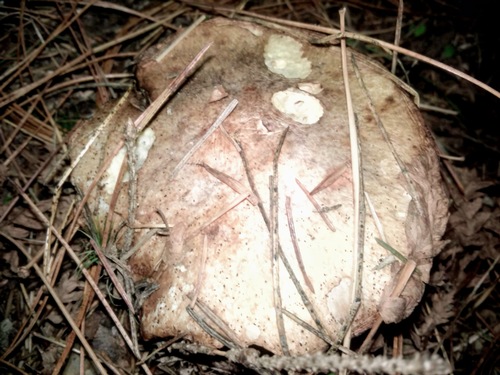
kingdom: Fungi
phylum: Basidiomycota
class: Agaricomycetes
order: Boletales
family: Suillaceae
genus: Suillus
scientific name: Suillus placidus
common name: Slippery white bolete
